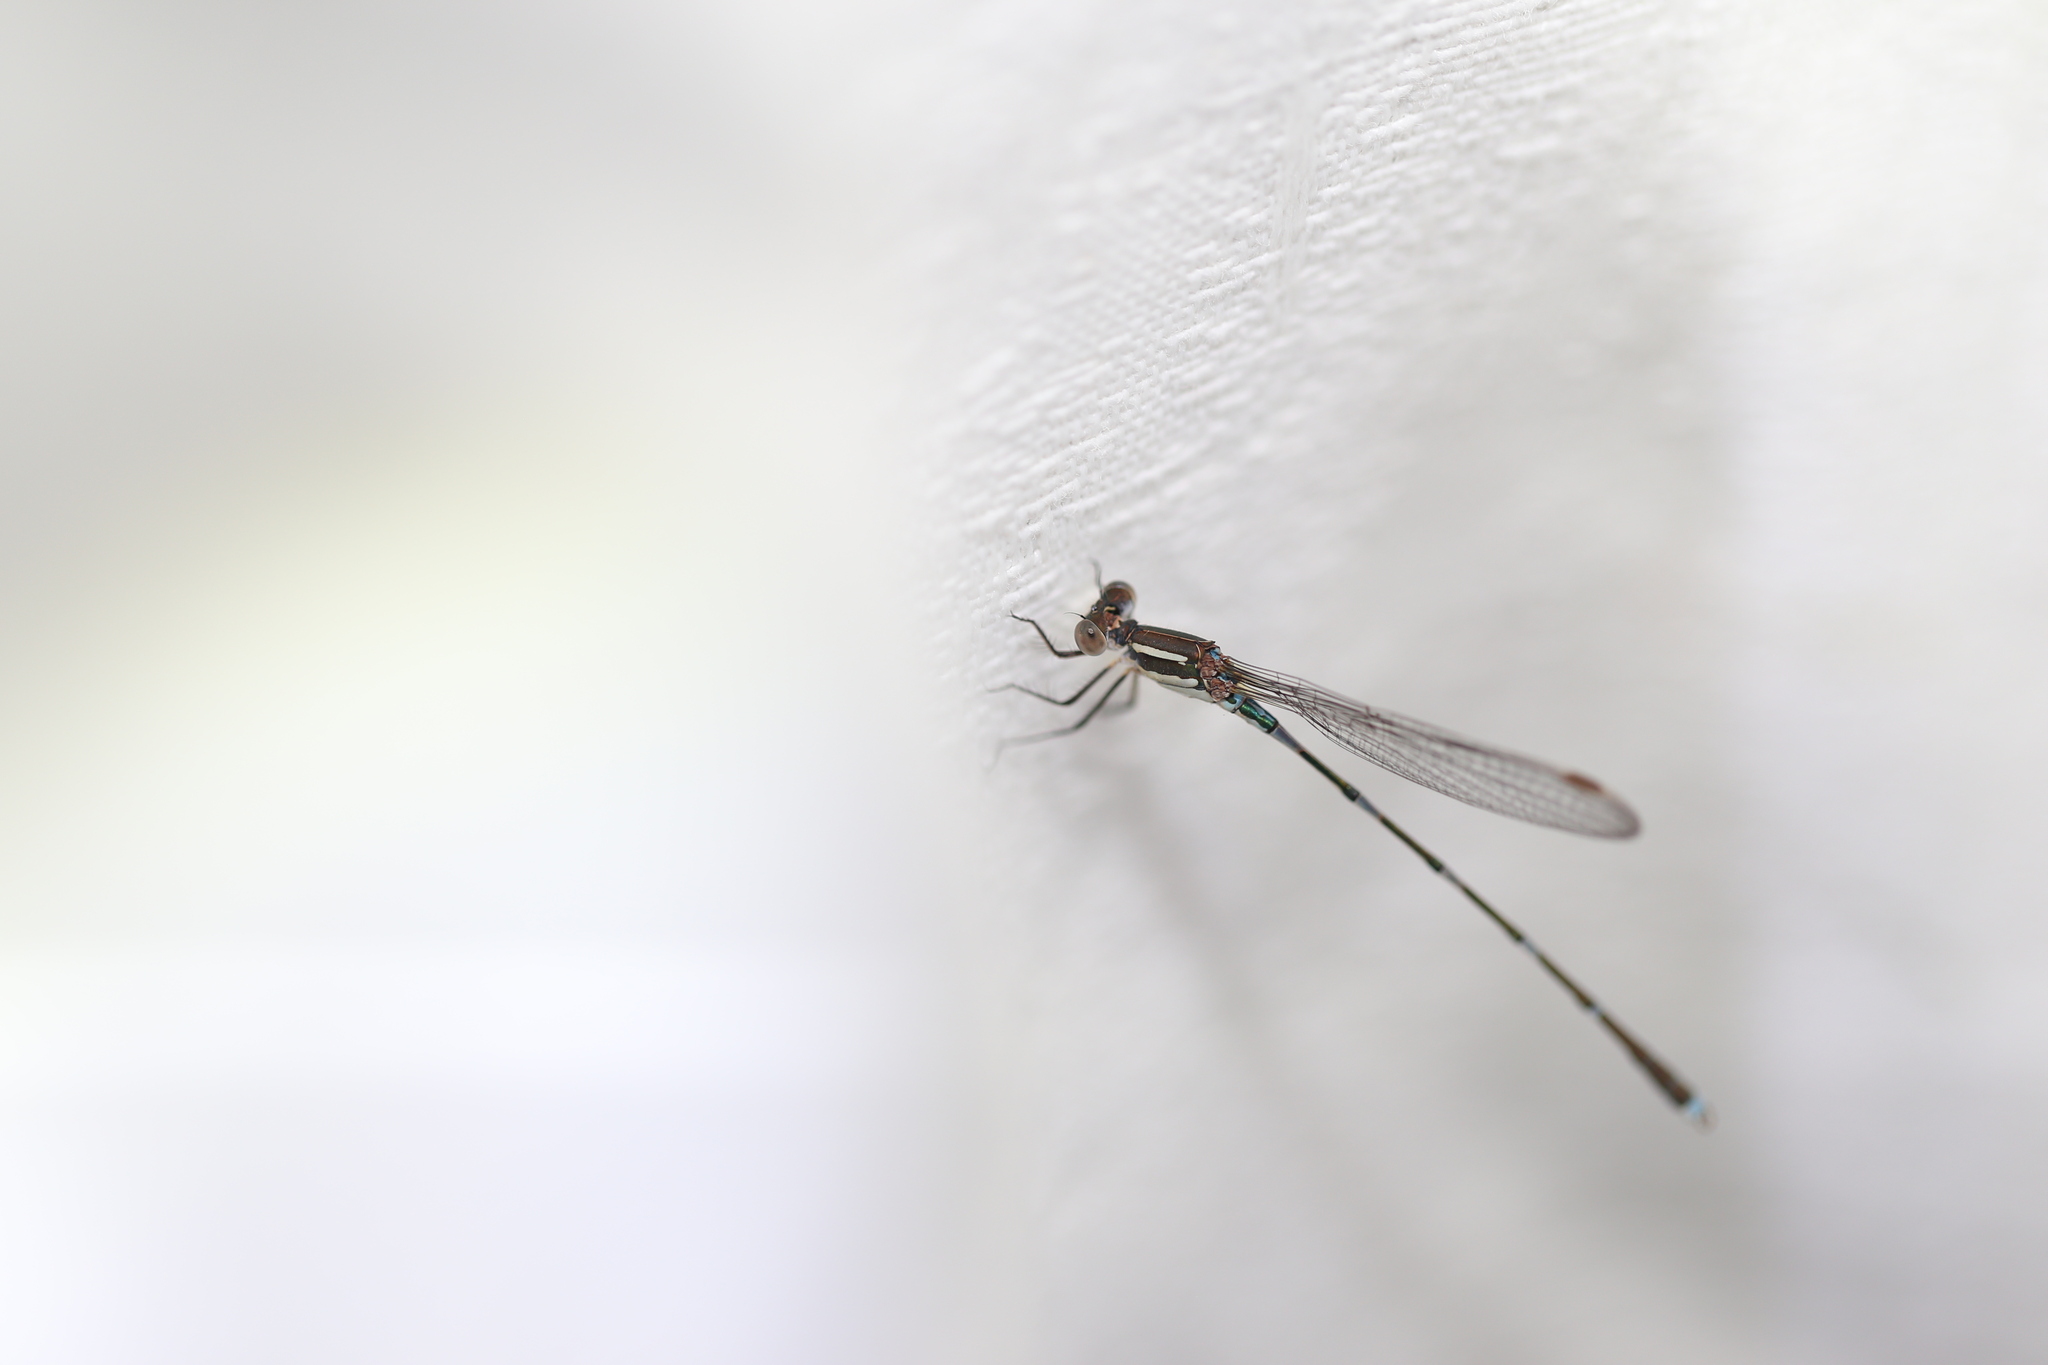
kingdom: Animalia
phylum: Arthropoda
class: Insecta
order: Odonata
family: Lestidae
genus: Austrolestes
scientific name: Austrolestes leda
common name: Wandering ringtail
